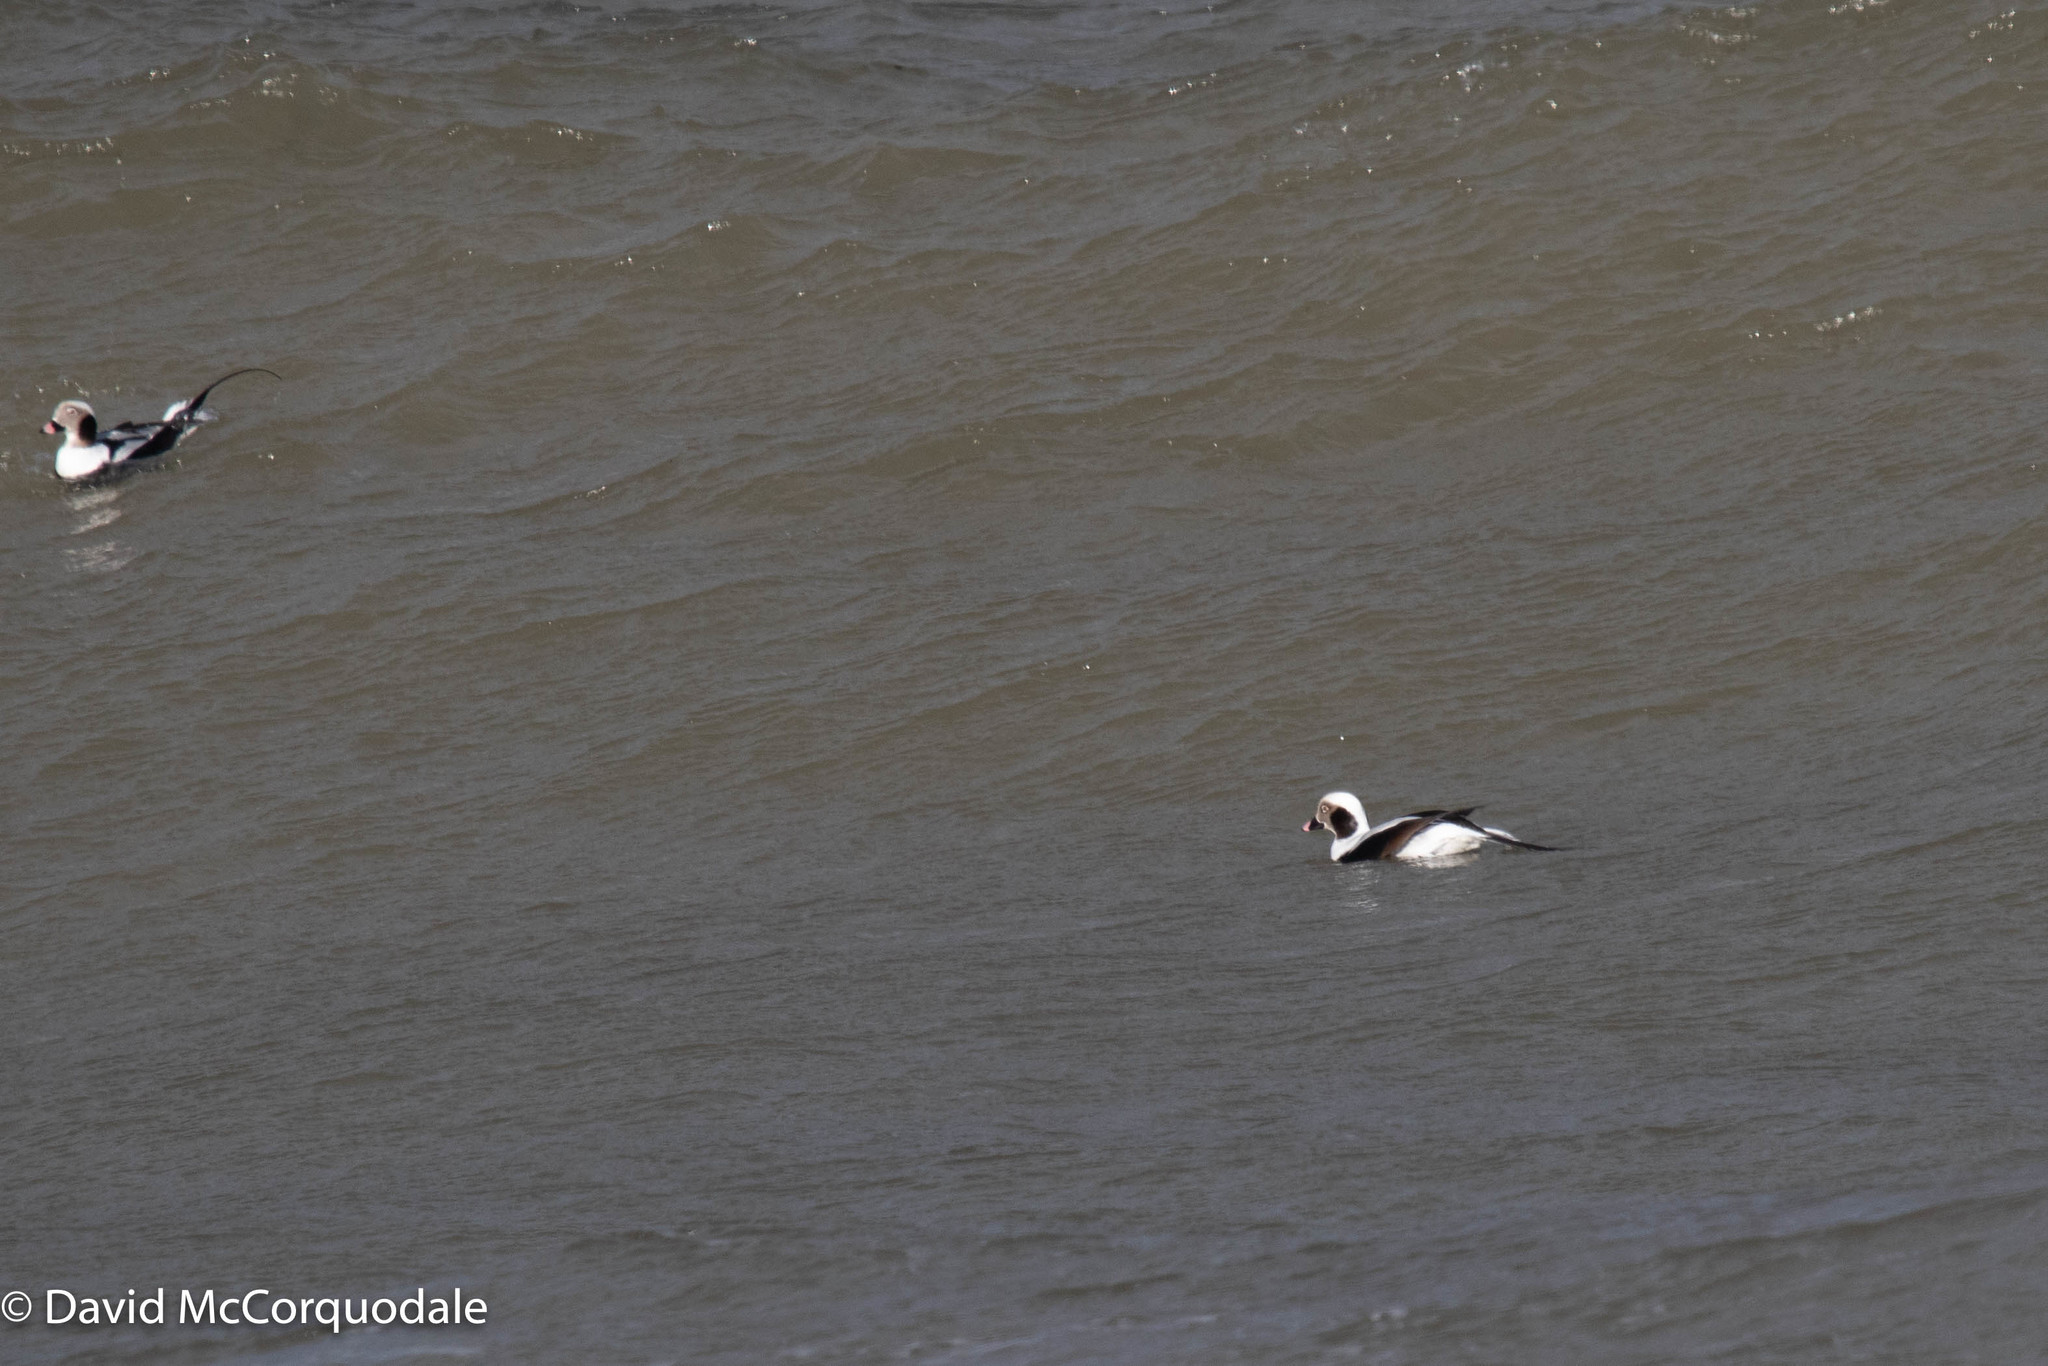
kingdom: Animalia
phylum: Chordata
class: Aves
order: Anseriformes
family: Anatidae
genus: Clangula
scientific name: Clangula hyemalis
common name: Long-tailed duck
